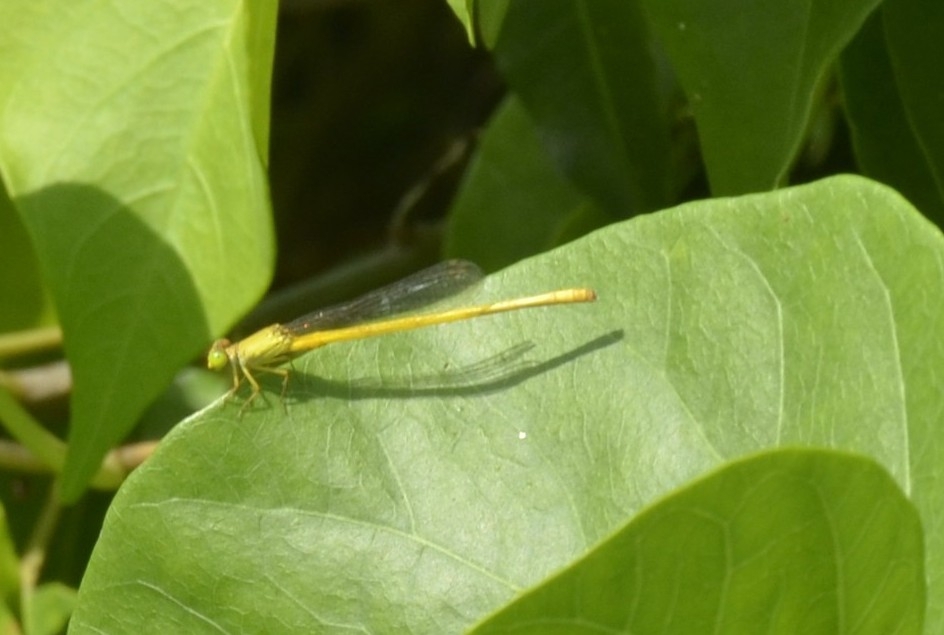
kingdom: Animalia
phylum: Arthropoda
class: Insecta
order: Odonata
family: Coenagrionidae
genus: Ceriagrion
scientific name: Ceriagrion coromandelianum
